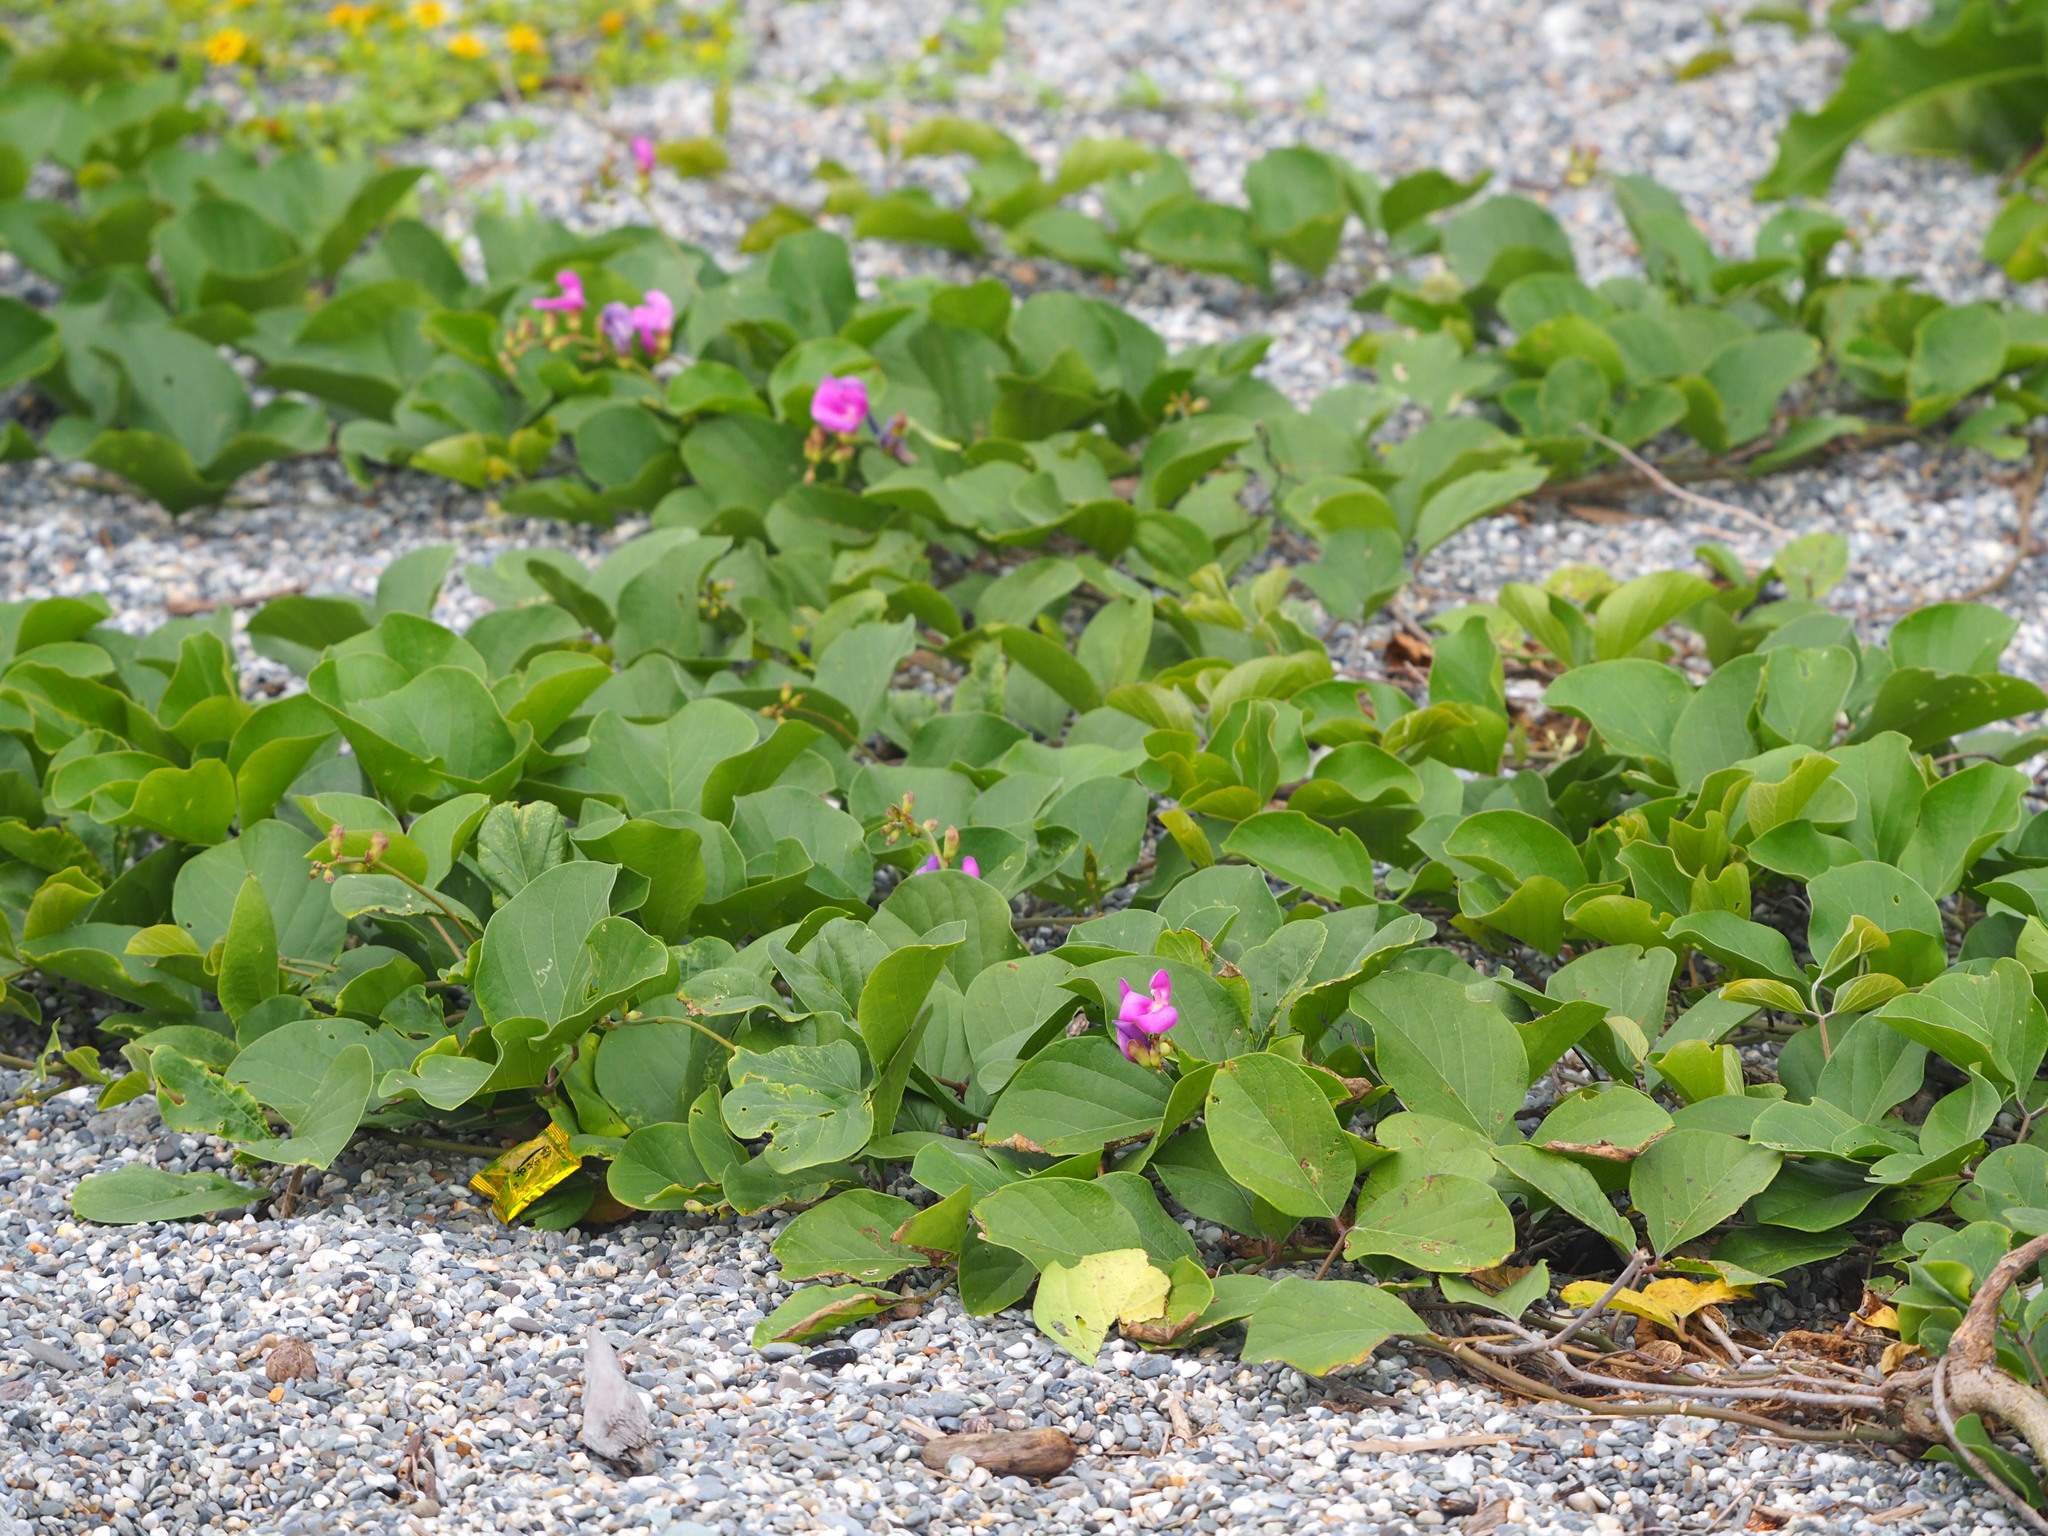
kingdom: Plantae
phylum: Tracheophyta
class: Magnoliopsida
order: Fabales
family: Fabaceae
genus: Canavalia
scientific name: Canavalia rosea
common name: Beach-bean
